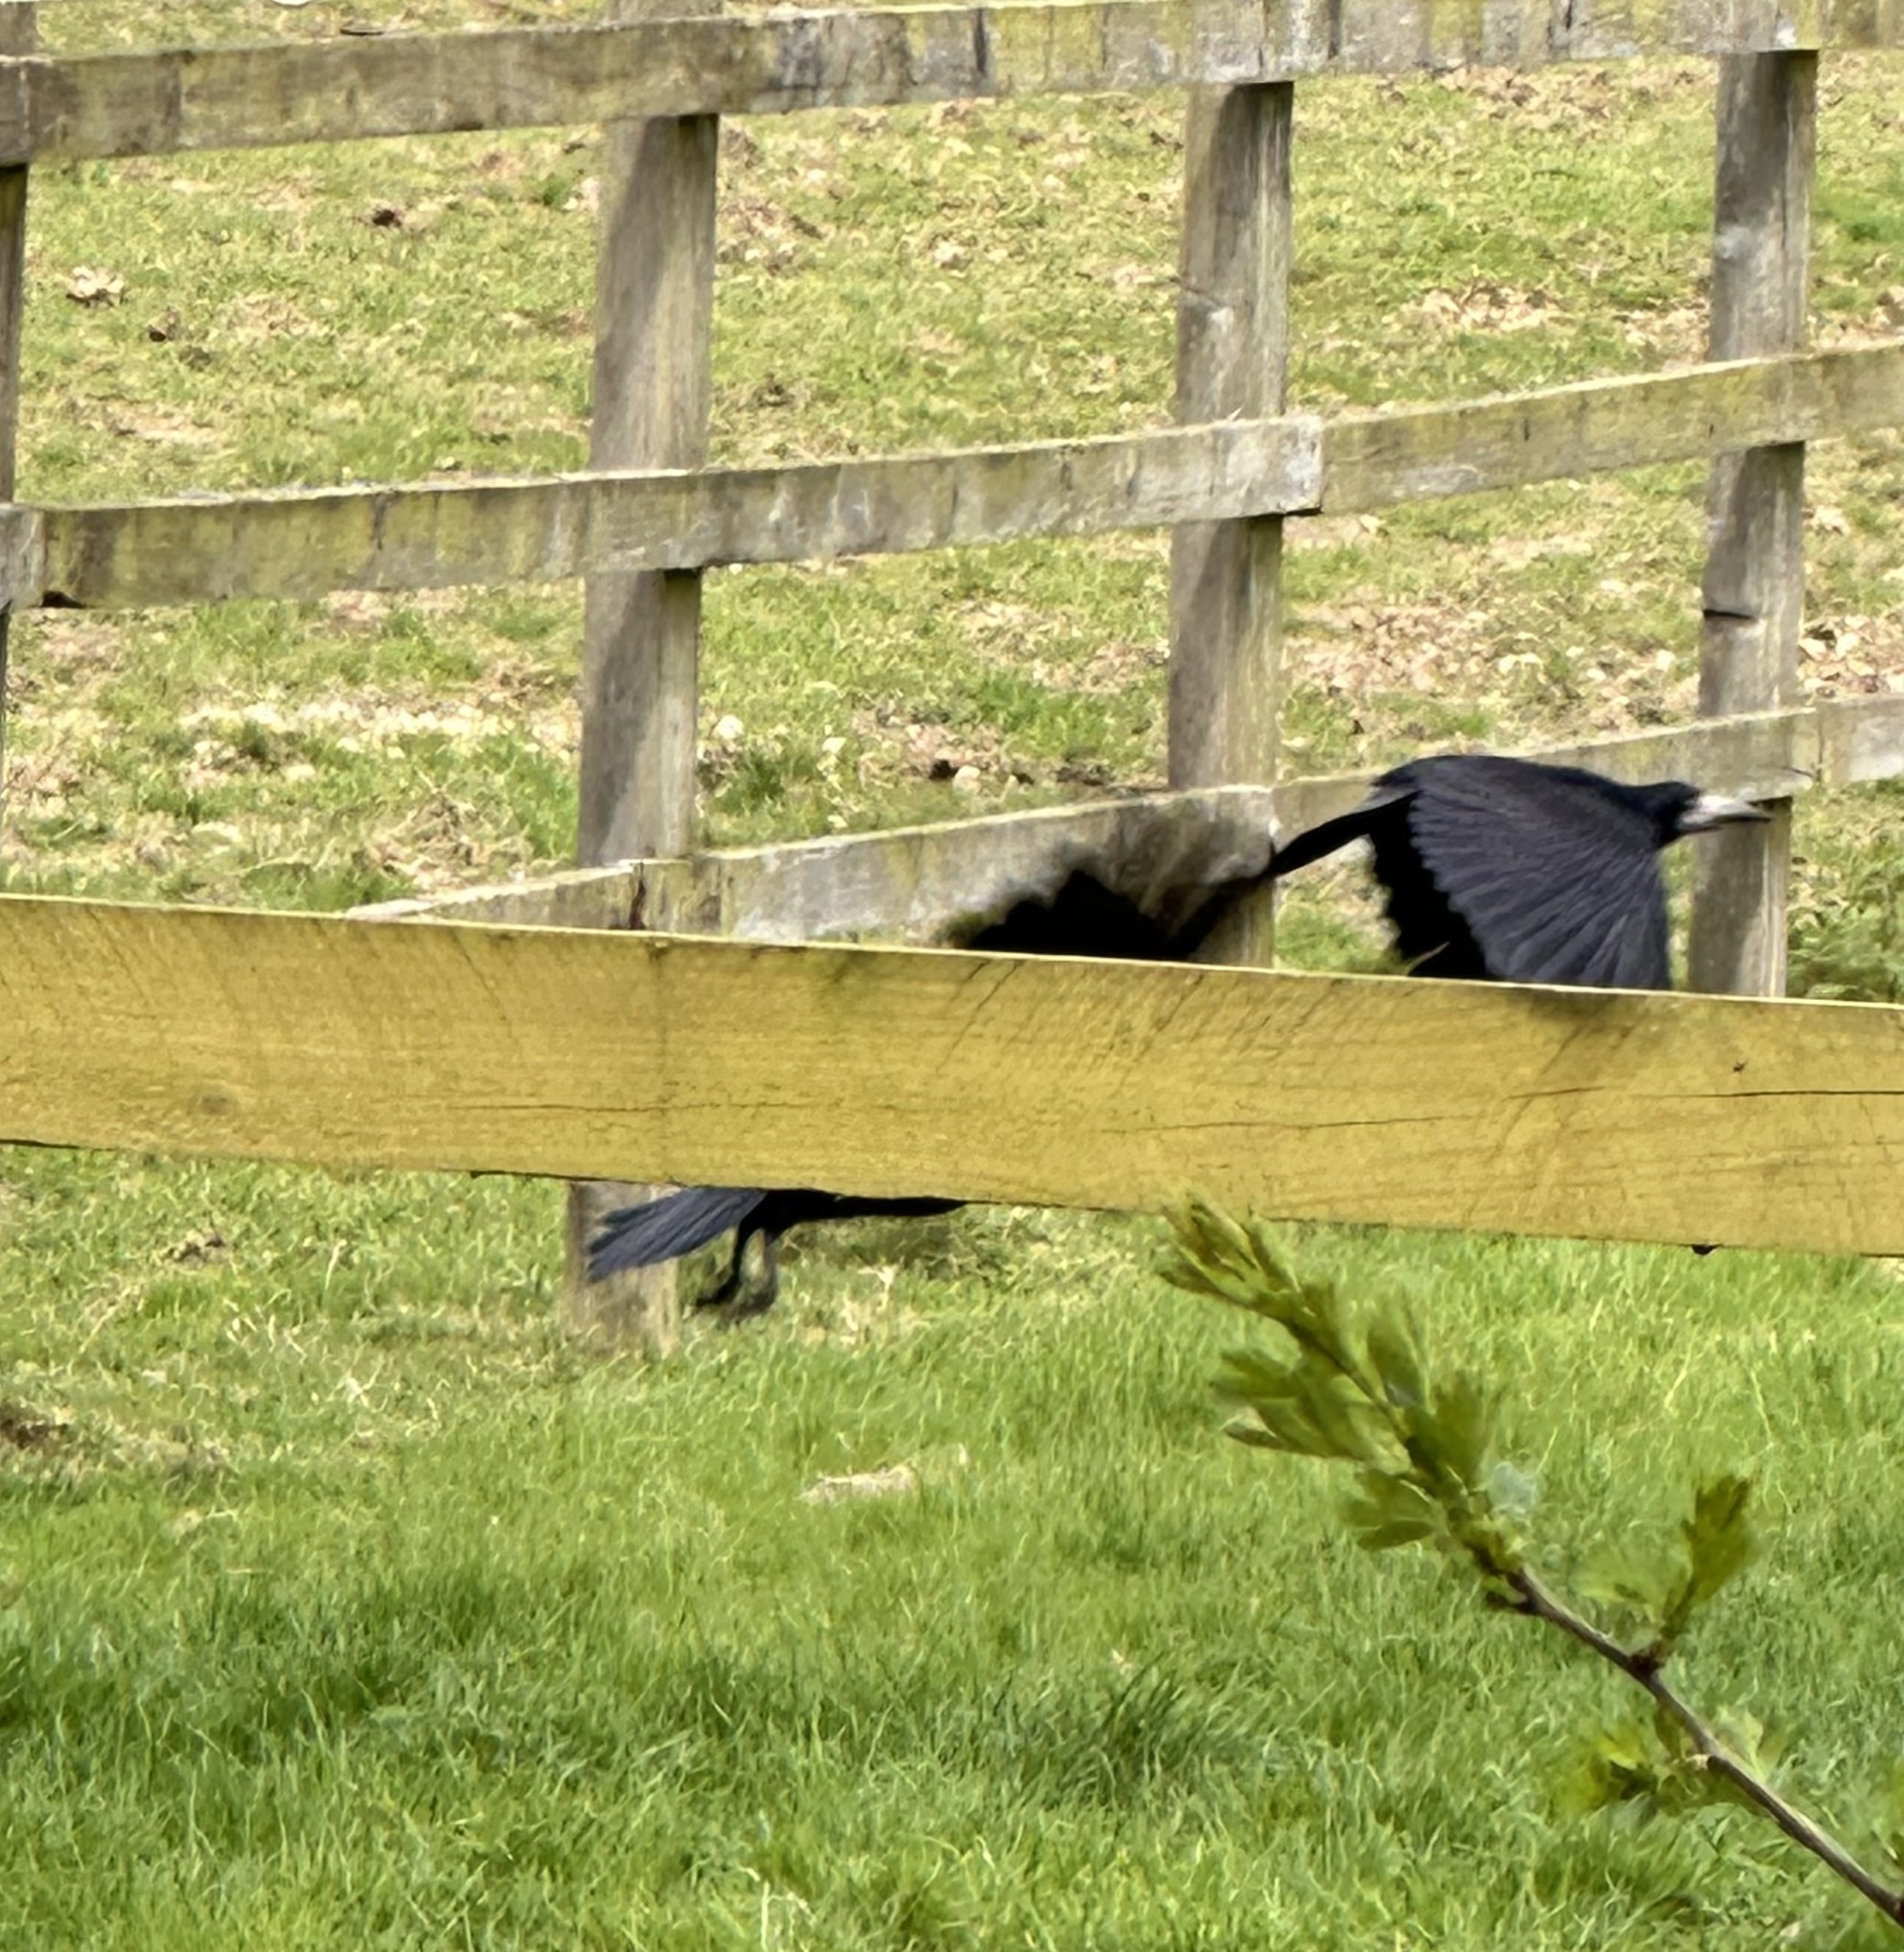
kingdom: Animalia
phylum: Chordata
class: Aves
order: Passeriformes
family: Corvidae
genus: Corvus
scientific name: Corvus frugilegus
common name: Rook
